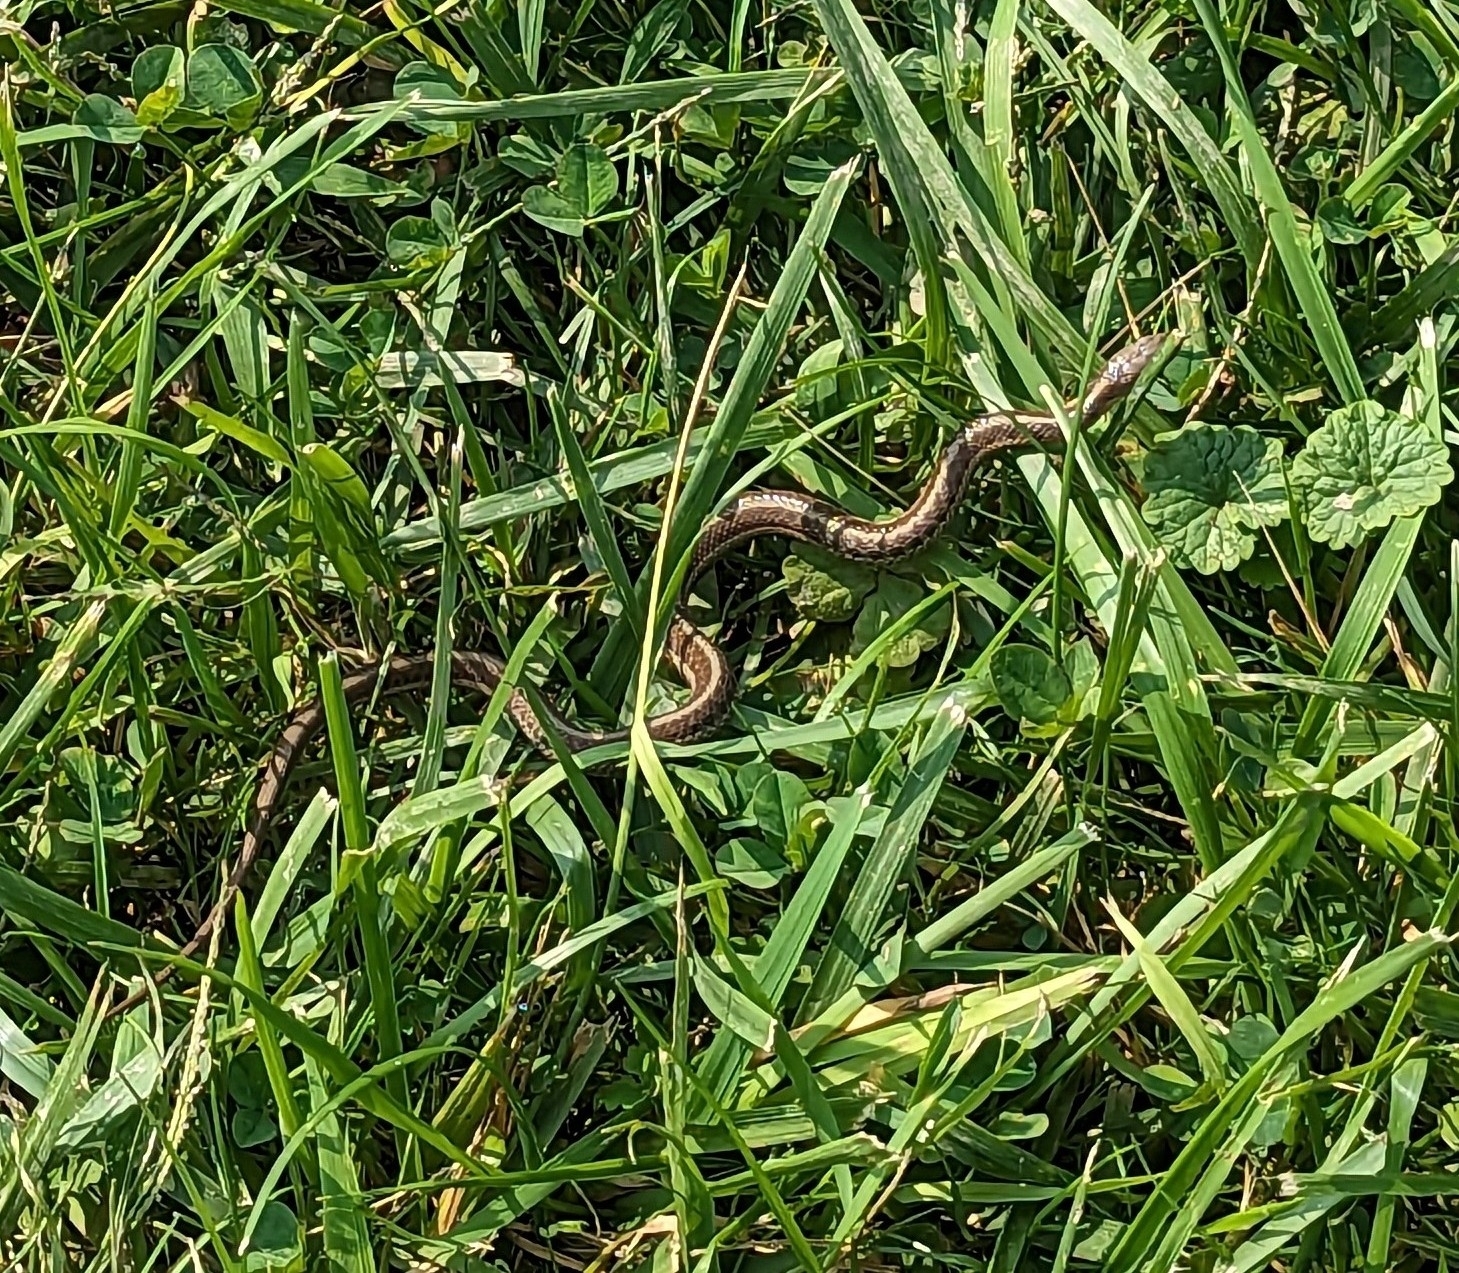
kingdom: Animalia
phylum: Chordata
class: Squamata
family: Colubridae
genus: Thamnophis
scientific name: Thamnophis sirtalis
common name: Common garter snake
